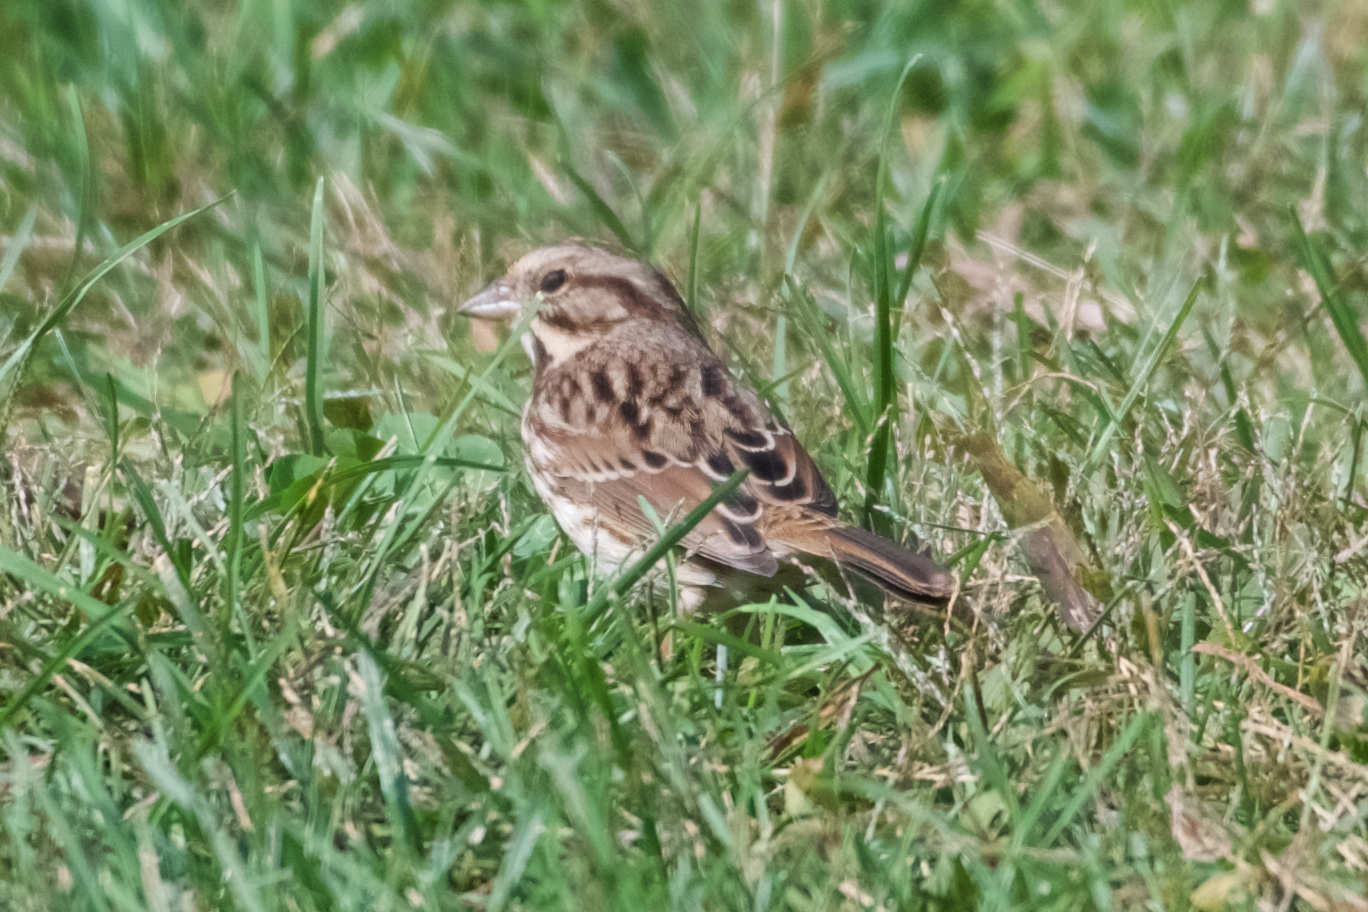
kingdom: Animalia
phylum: Chordata
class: Aves
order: Passeriformes
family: Passerellidae
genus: Melospiza
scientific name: Melospiza melodia
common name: Song sparrow
